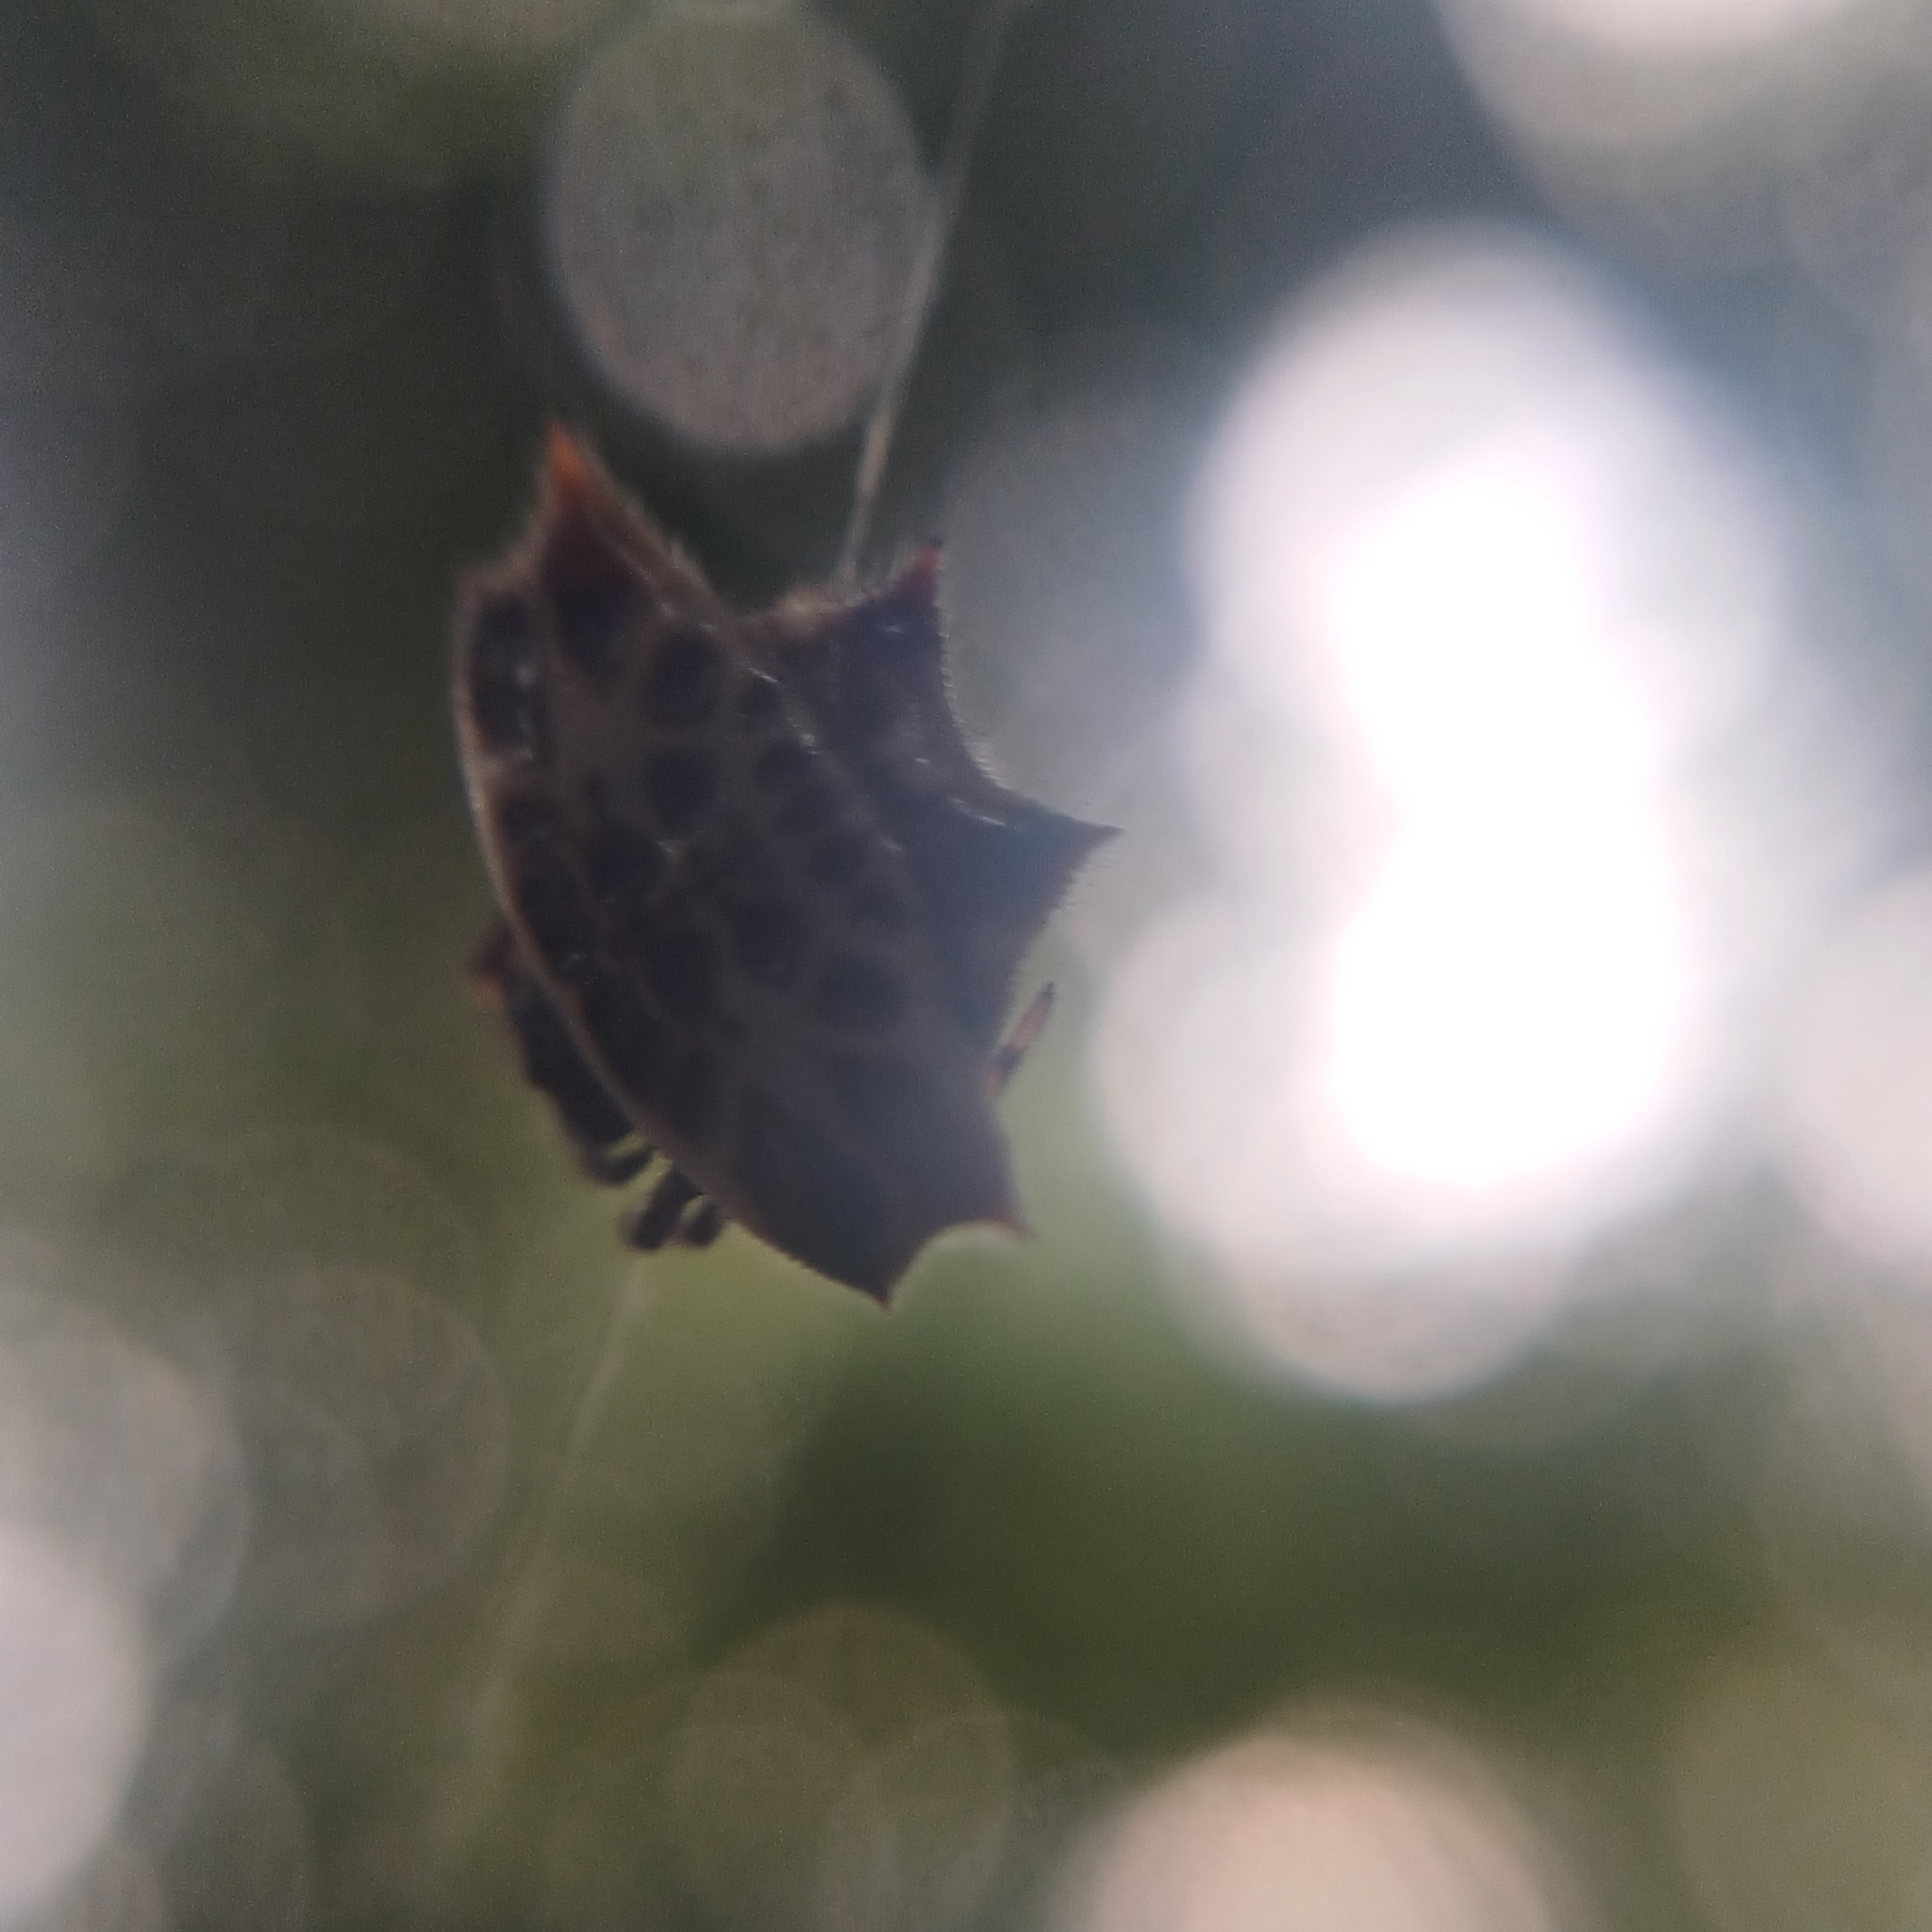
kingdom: Animalia
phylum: Arthropoda
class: Arachnida
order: Araneae
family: Araneidae
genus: Gasteracantha
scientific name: Gasteracantha cancriformis
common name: Orb weavers
